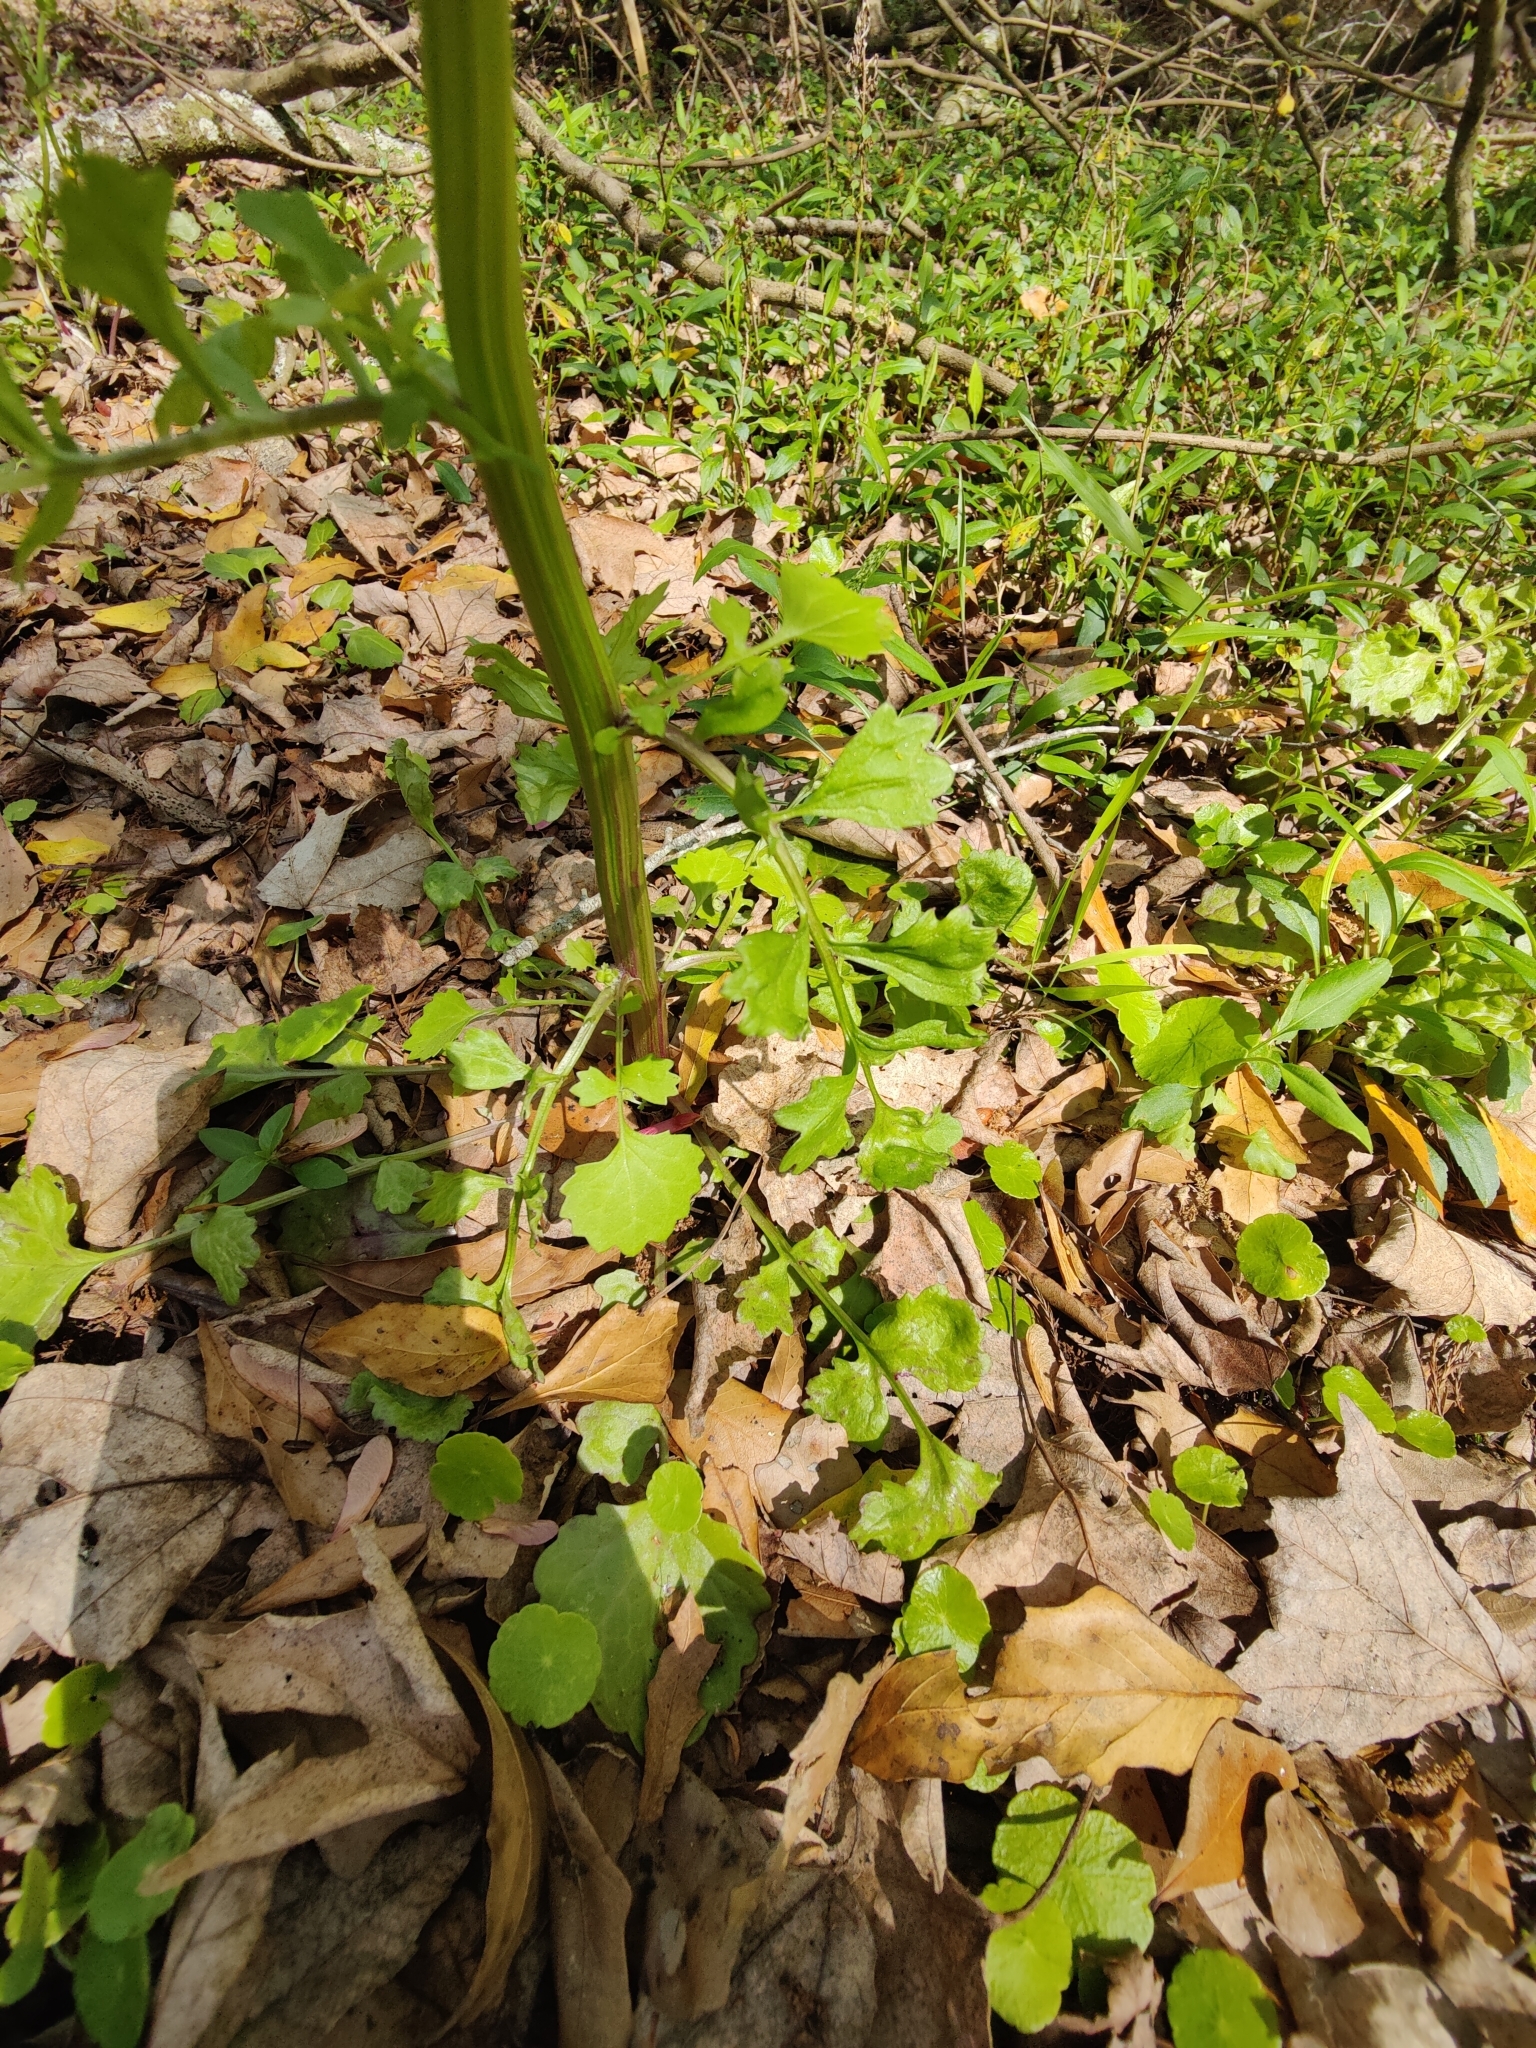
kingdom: Plantae
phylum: Tracheophyta
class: Magnoliopsida
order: Asterales
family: Asteraceae
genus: Packera
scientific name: Packera glabella
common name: Butterweed
